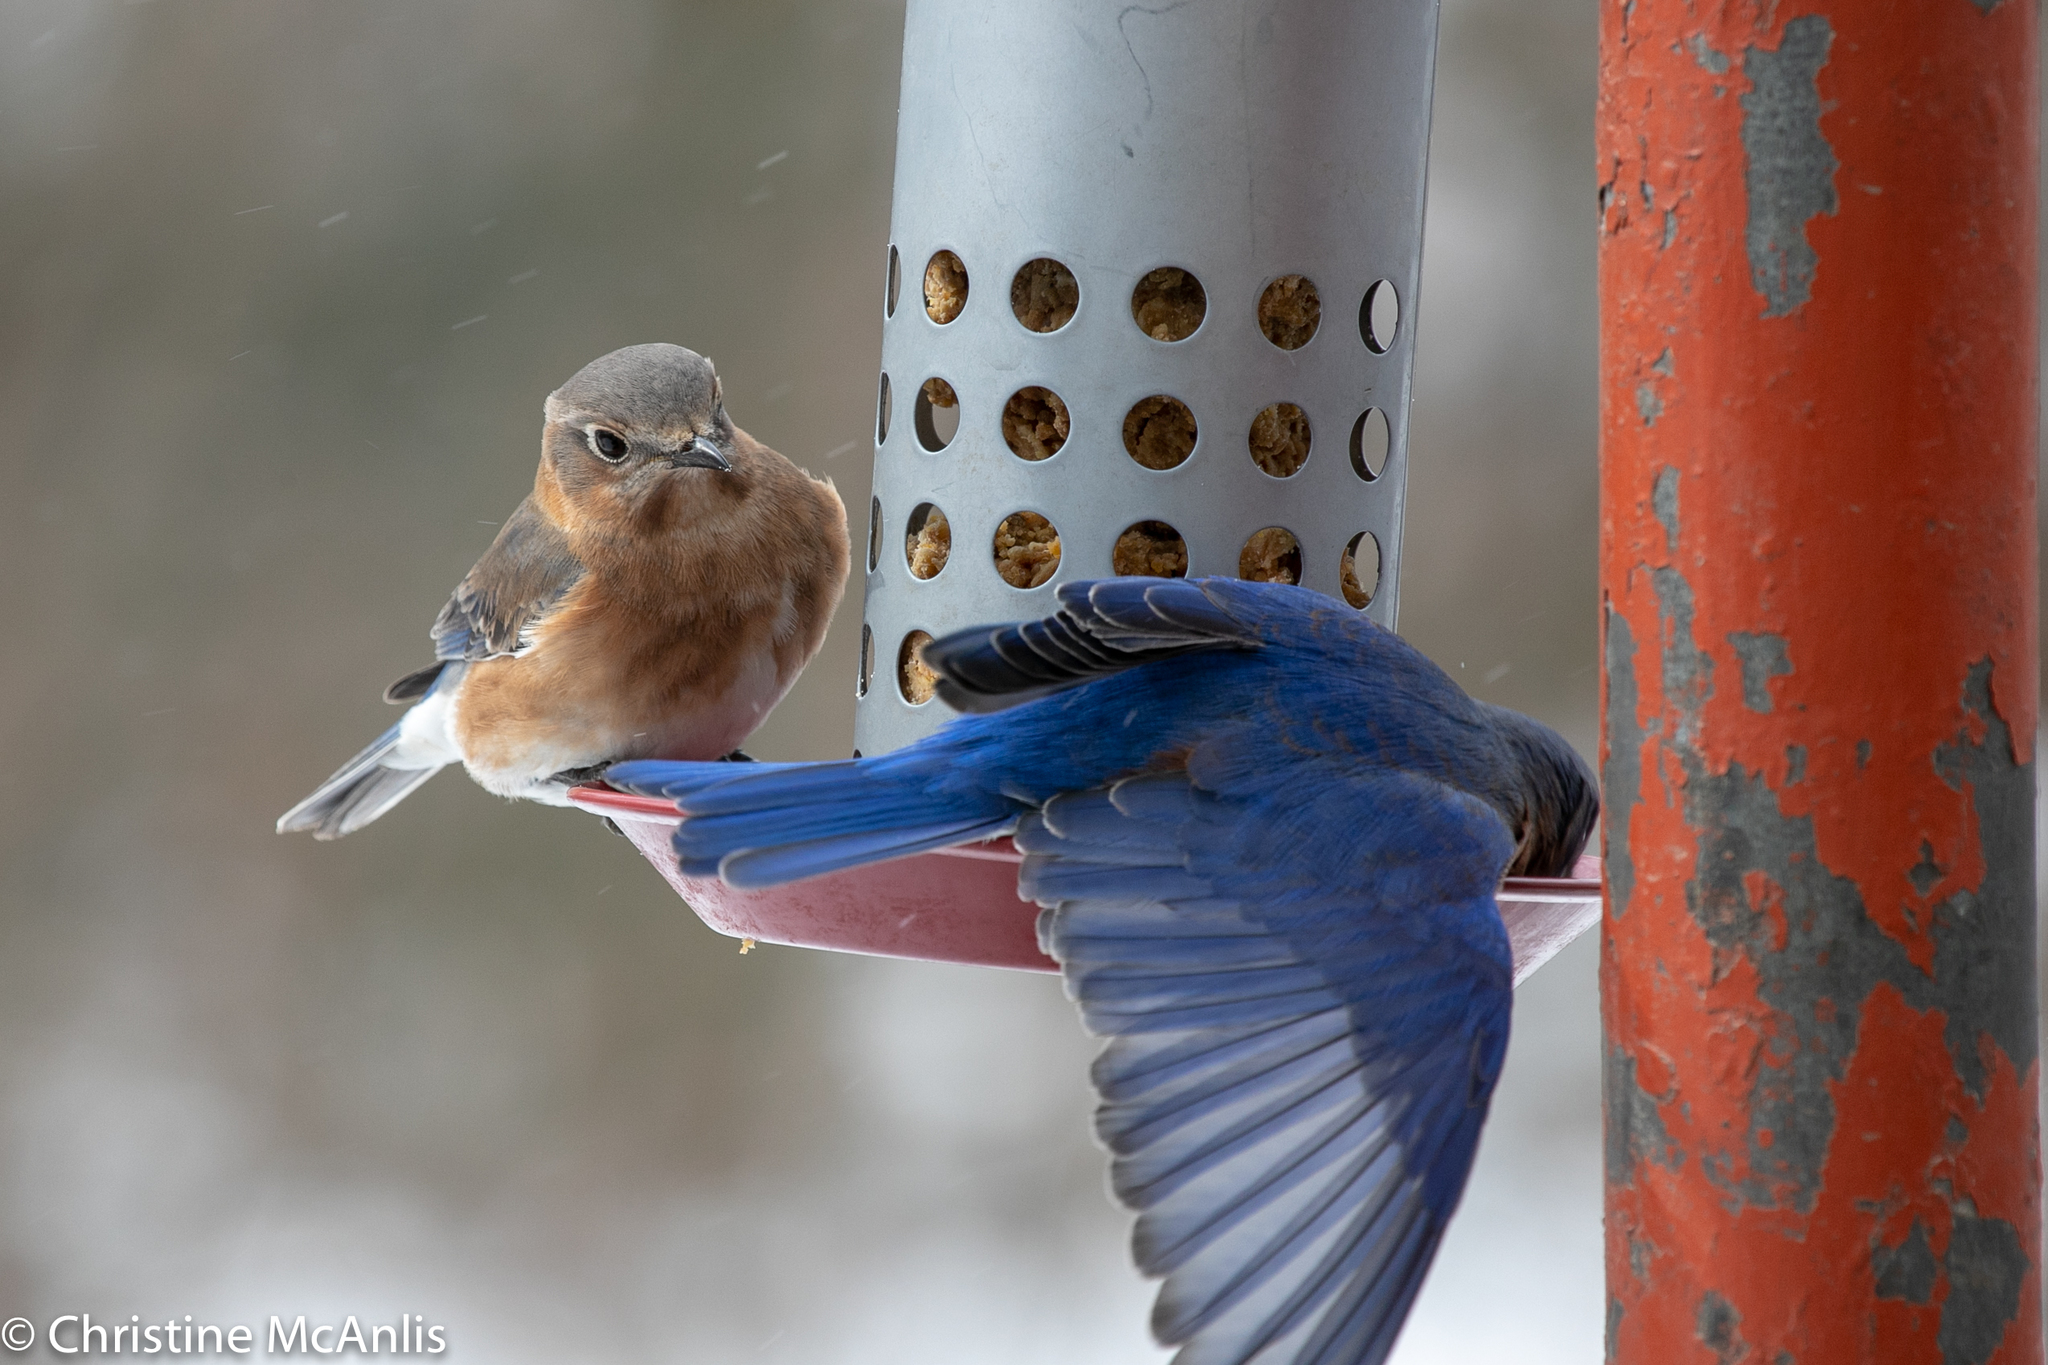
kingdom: Animalia
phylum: Chordata
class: Aves
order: Passeriformes
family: Turdidae
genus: Sialia
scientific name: Sialia sialis
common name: Eastern bluebird
